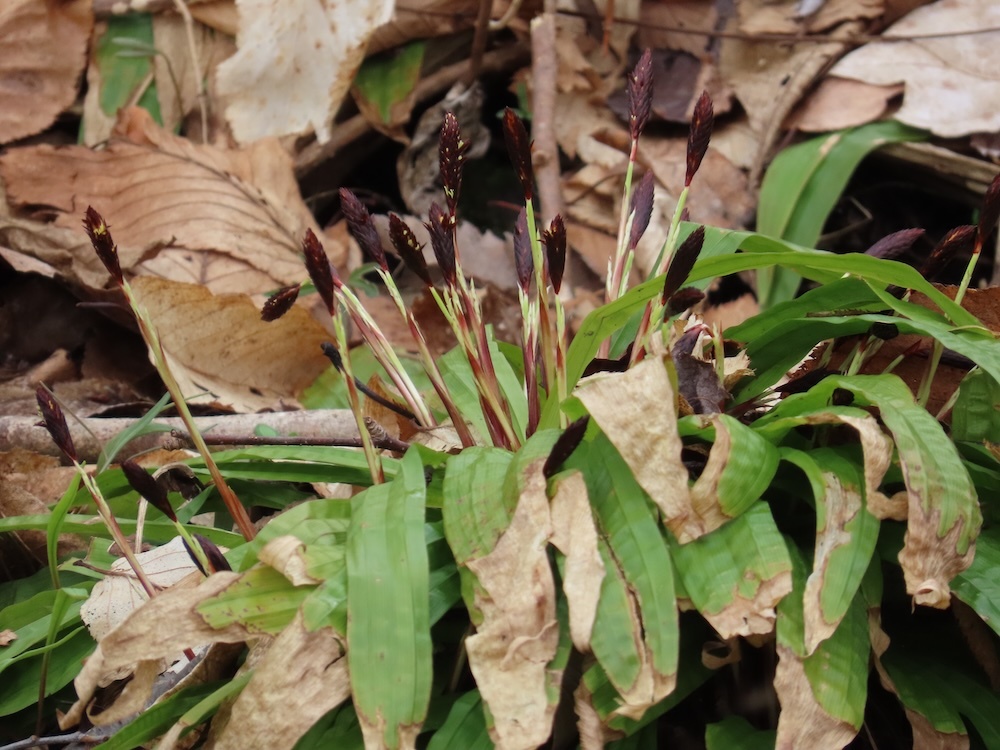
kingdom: Plantae
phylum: Tracheophyta
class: Liliopsida
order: Poales
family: Cyperaceae
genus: Carex
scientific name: Carex plantaginea
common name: Plantain-leaved sedge
